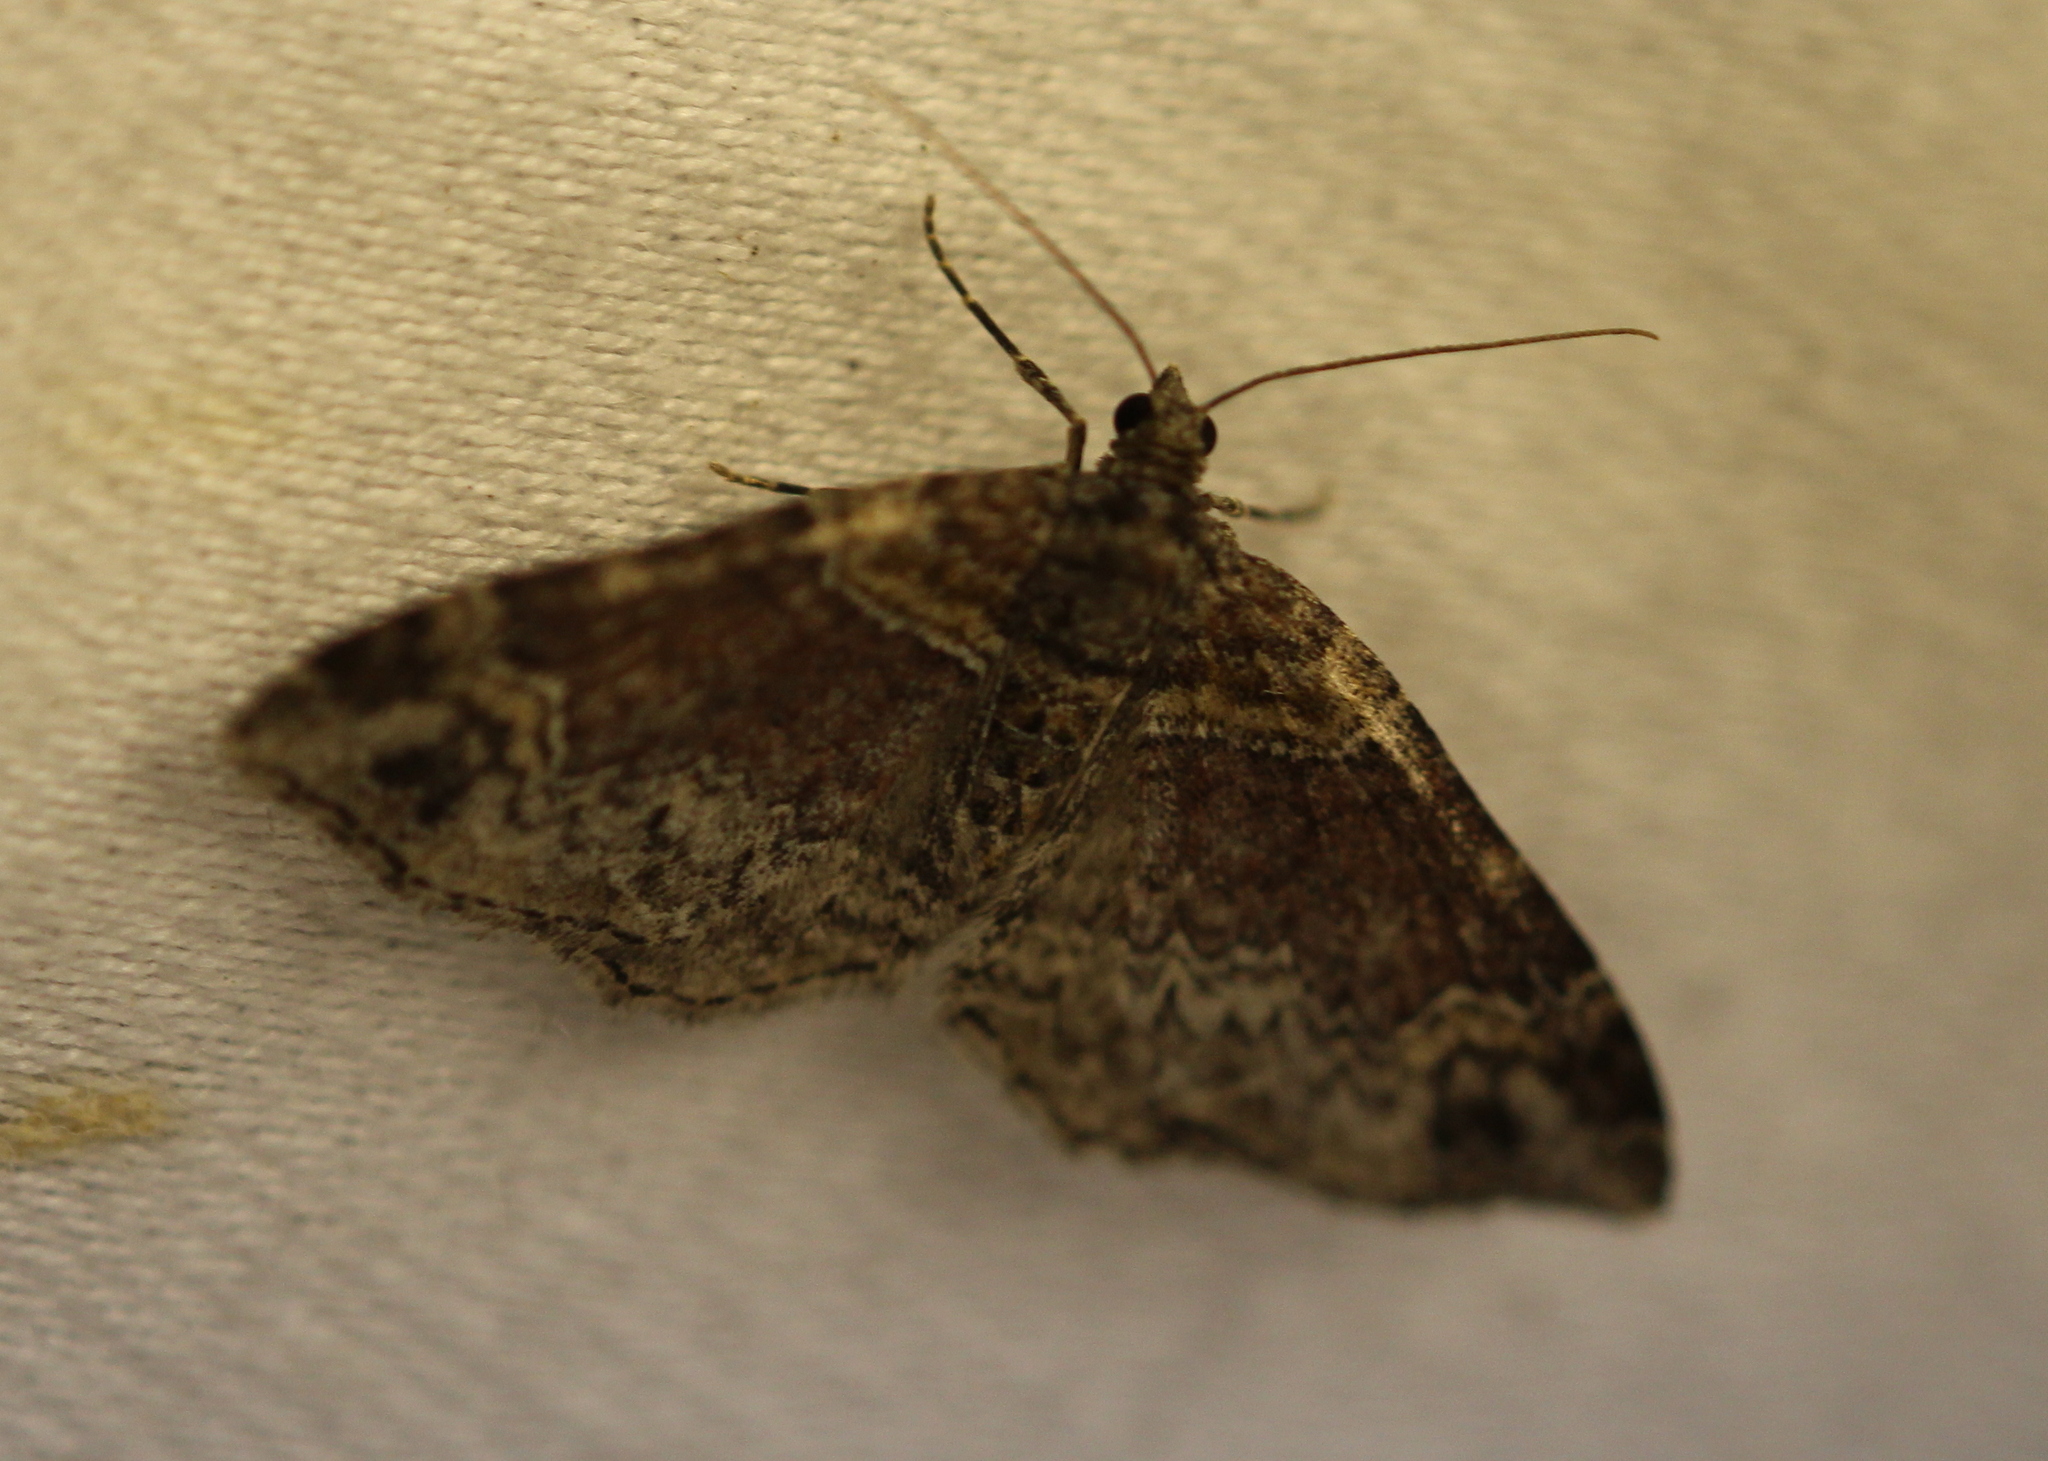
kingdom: Animalia
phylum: Arthropoda
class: Insecta
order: Lepidoptera
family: Geometridae
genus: Xanthorhoe
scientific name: Xanthorhoe ferrugata
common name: Dark-barred twin-spot carpet
